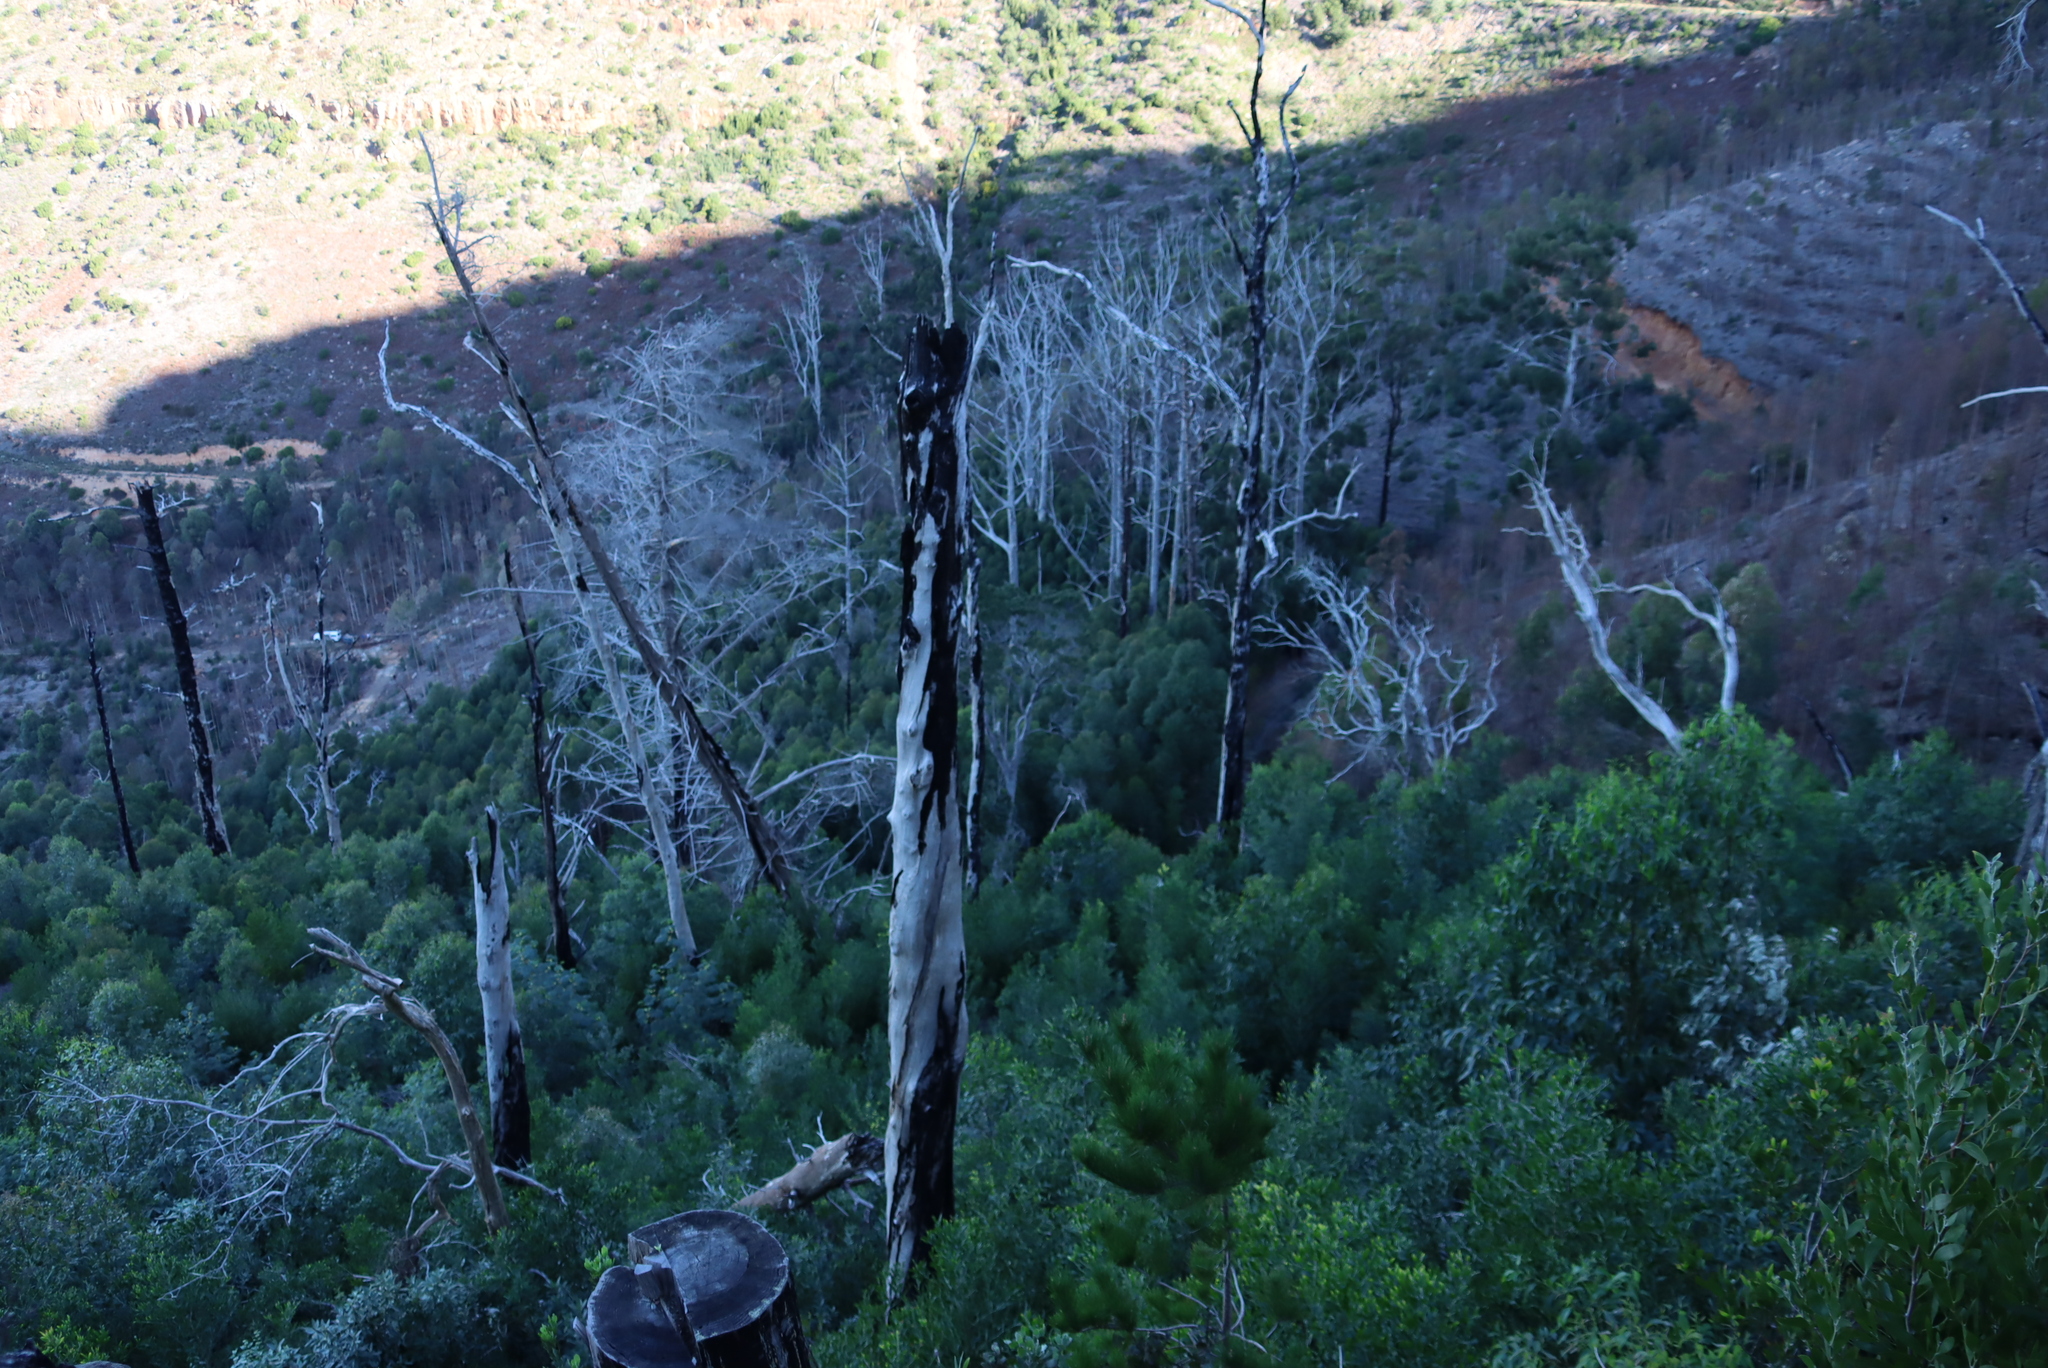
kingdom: Plantae
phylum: Tracheophyta
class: Magnoliopsida
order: Fabales
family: Fabaceae
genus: Acacia
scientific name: Acacia melanoxylon
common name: Blackwood
